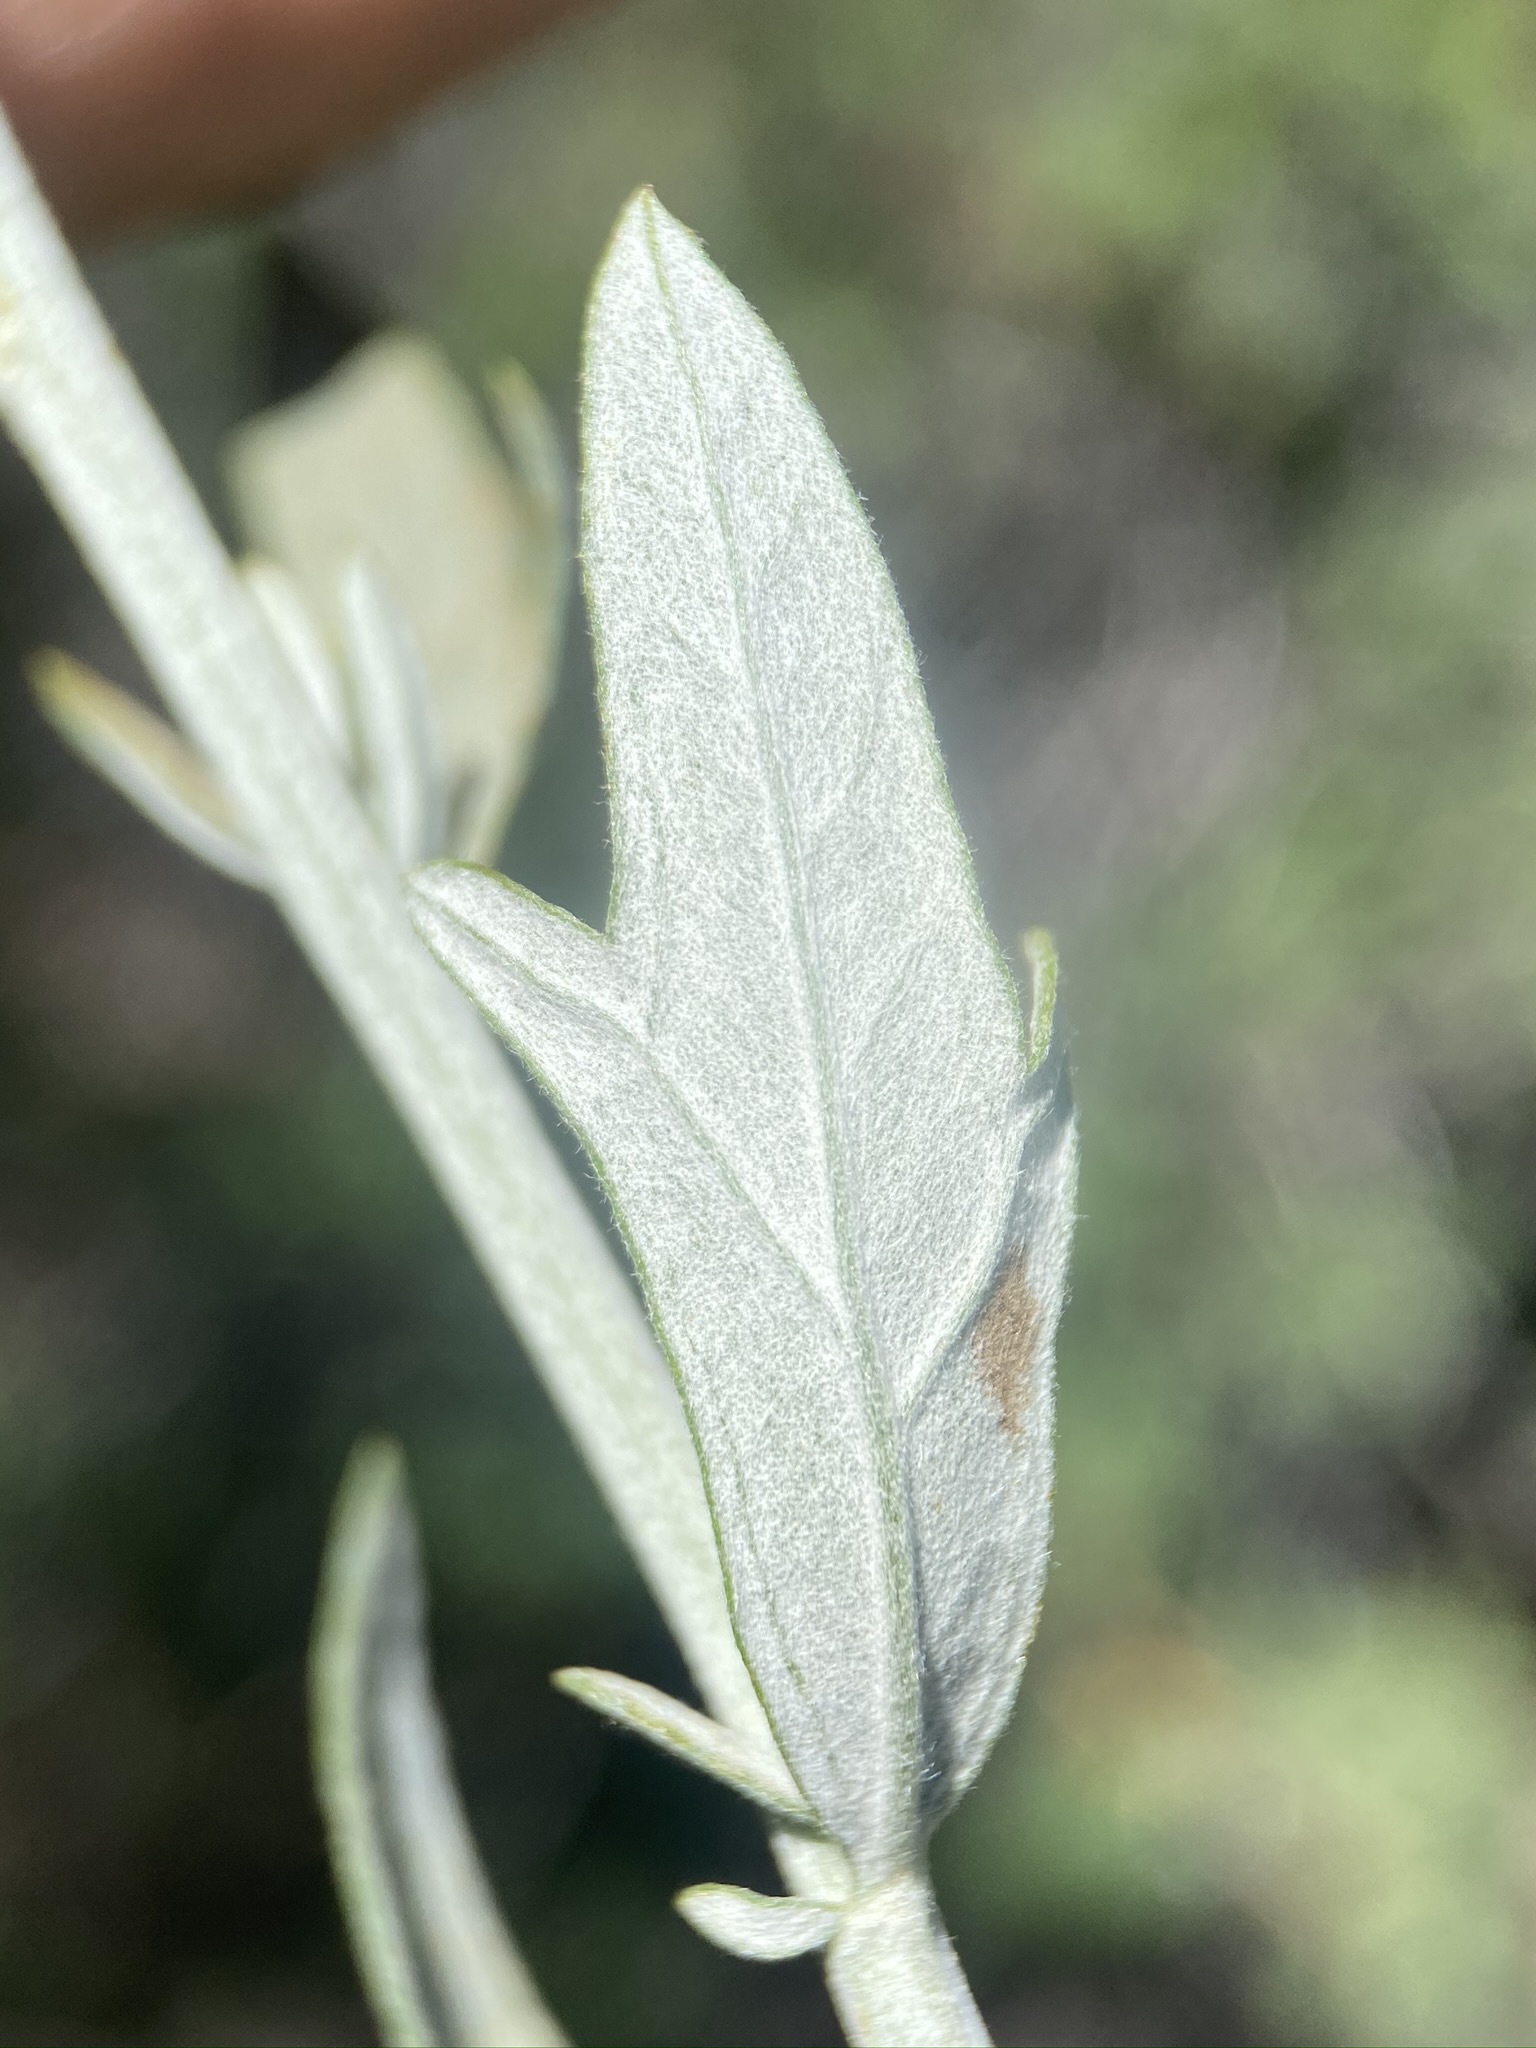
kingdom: Plantae
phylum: Tracheophyta
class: Magnoliopsida
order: Asterales
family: Asteraceae
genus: Artemisia
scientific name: Artemisia ludoviciana
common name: Western mugwort
